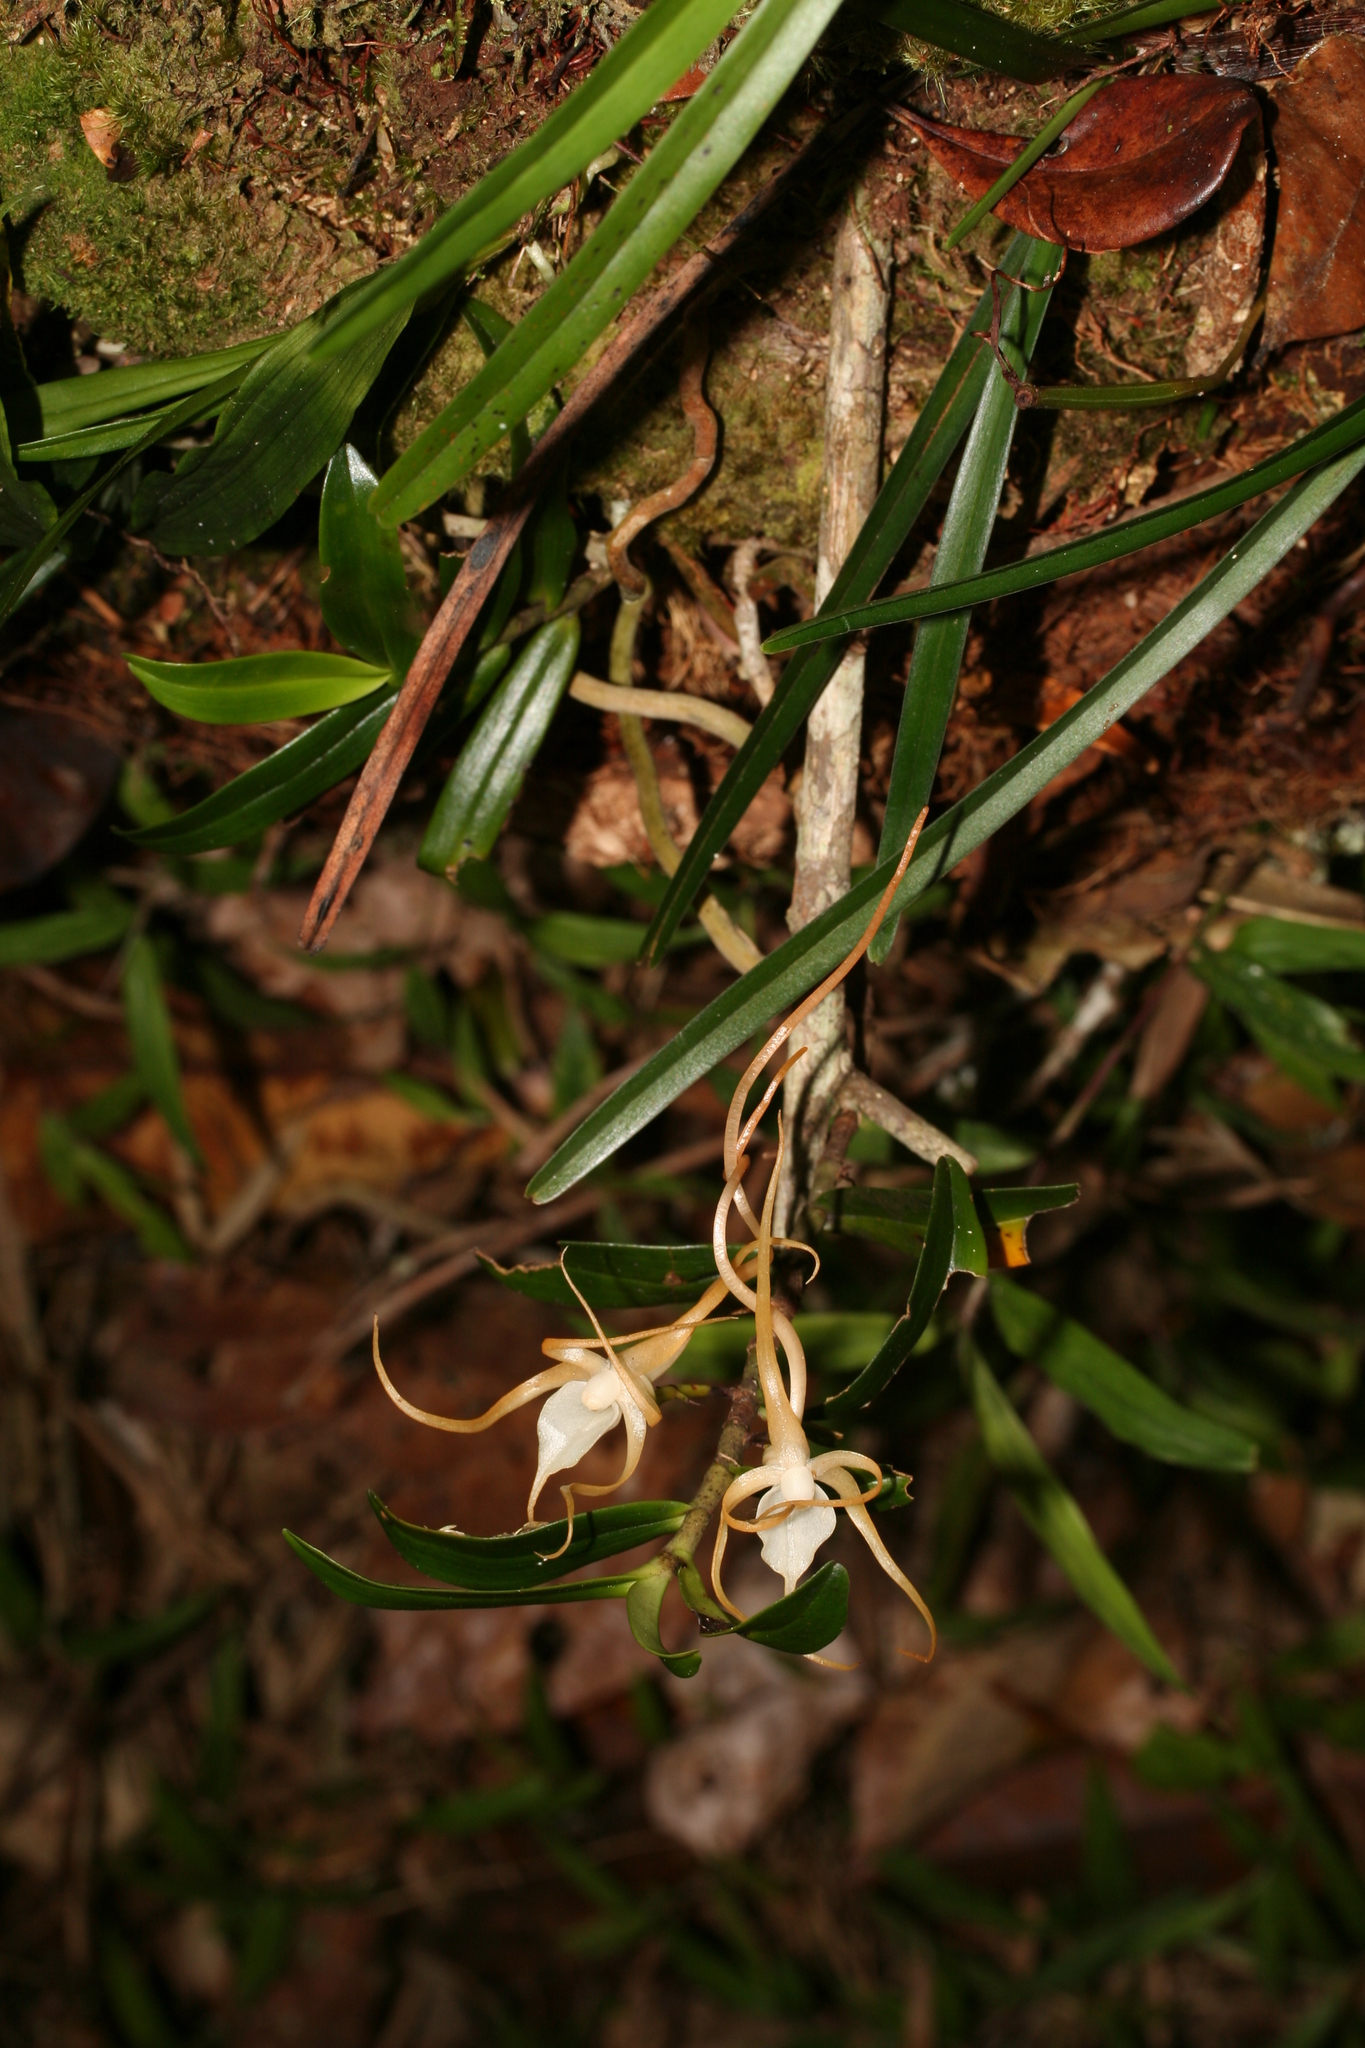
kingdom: Plantae
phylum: Tracheophyta
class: Liliopsida
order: Asparagales
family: Orchidaceae
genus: Angraecum
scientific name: Angraecum conchoglossum
